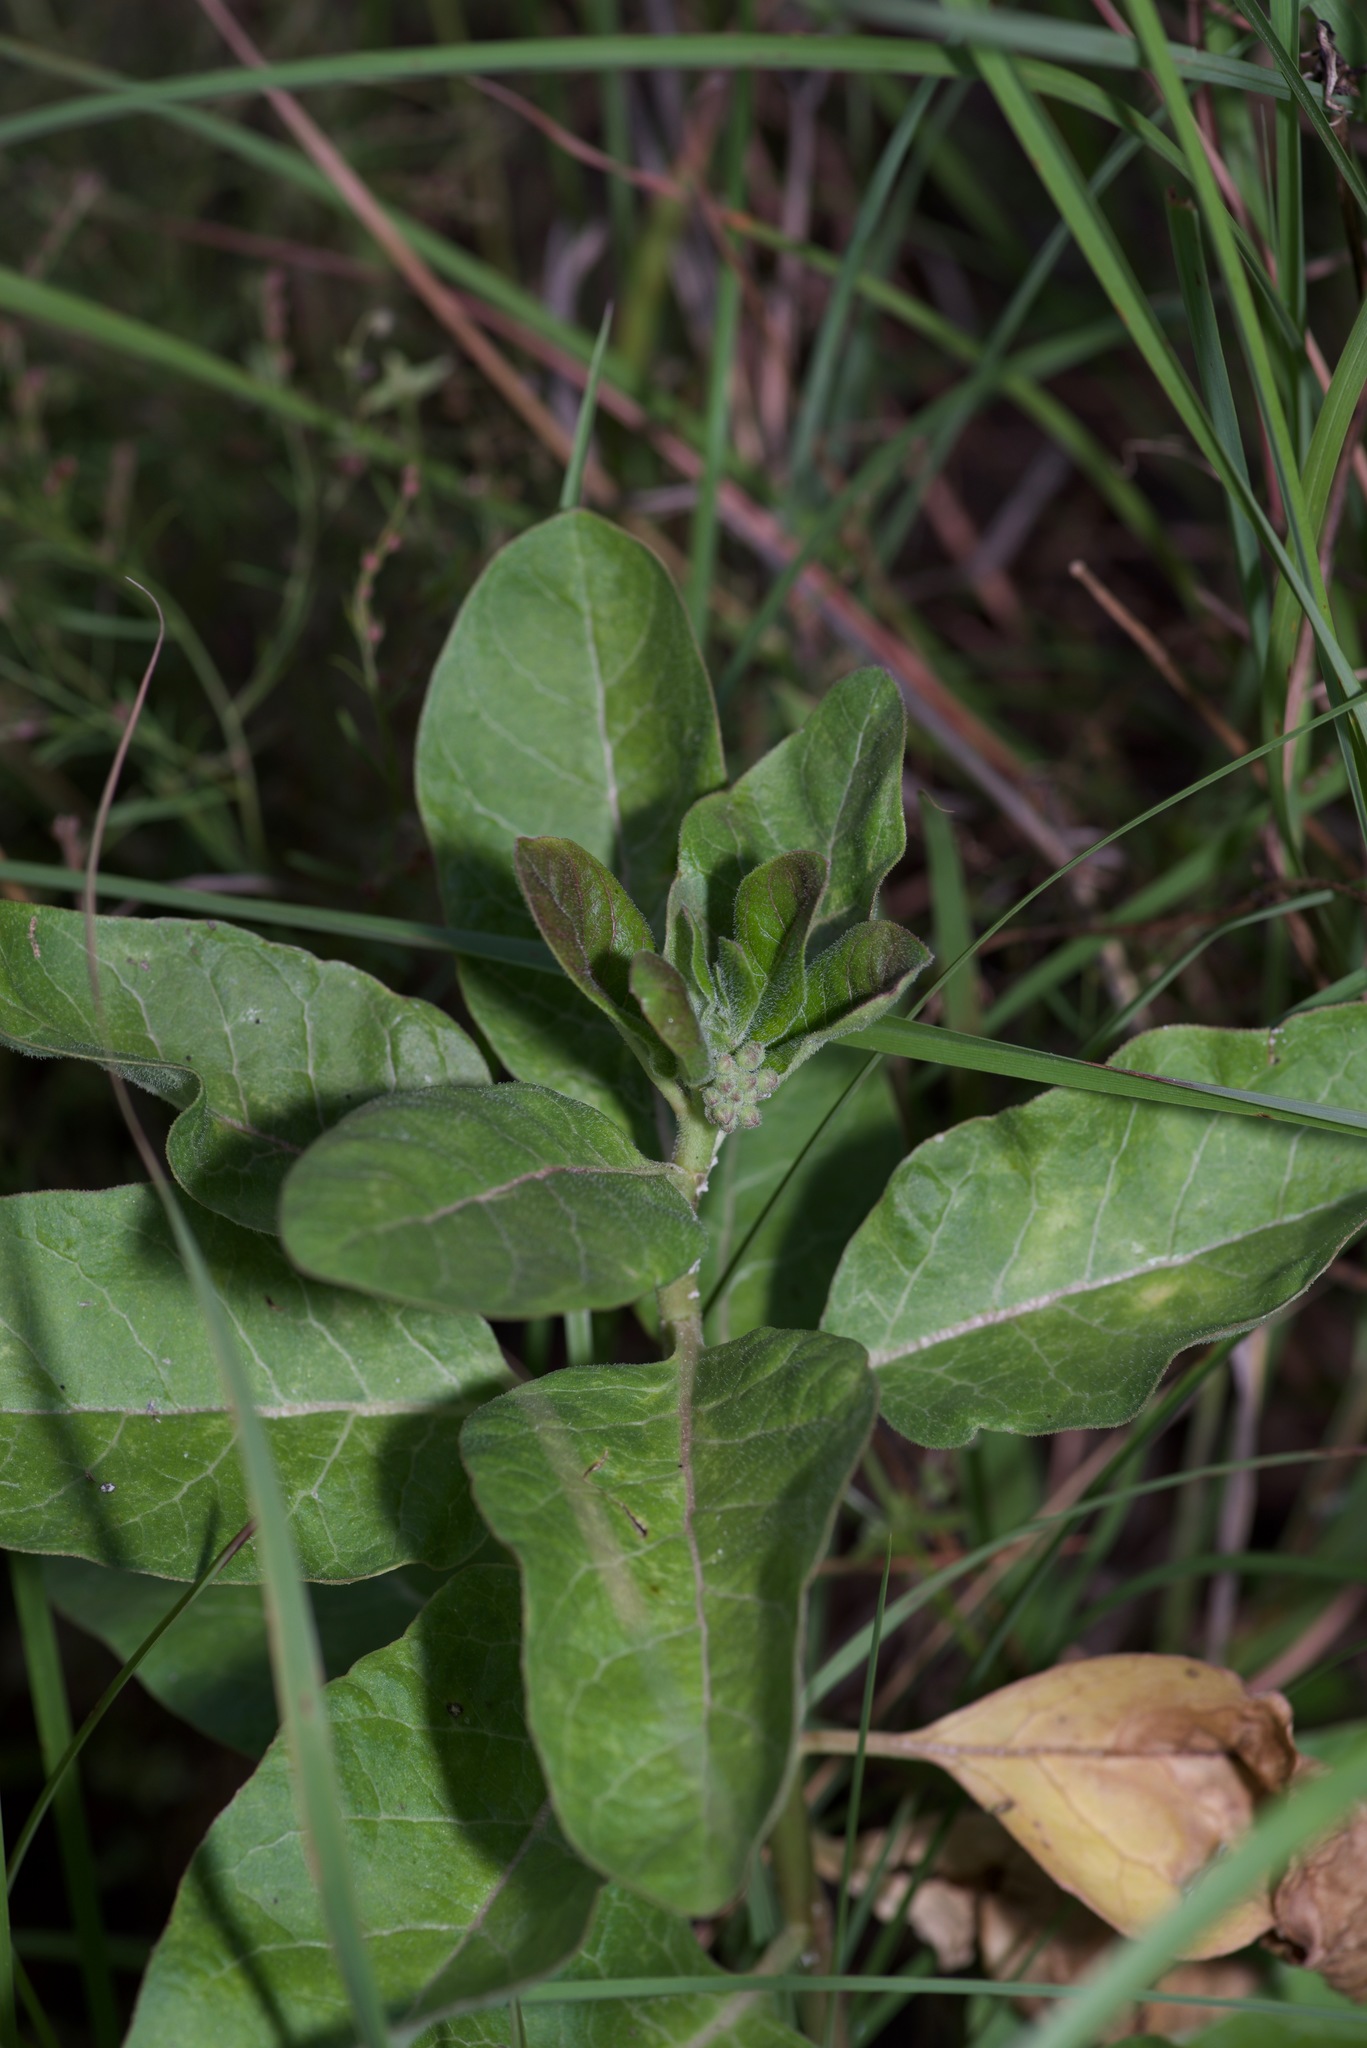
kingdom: Plantae
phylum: Tracheophyta
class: Magnoliopsida
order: Gentianales
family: Apocynaceae
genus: Asclepias
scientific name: Asclepias oenotheroides
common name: Zizotes milkweed
